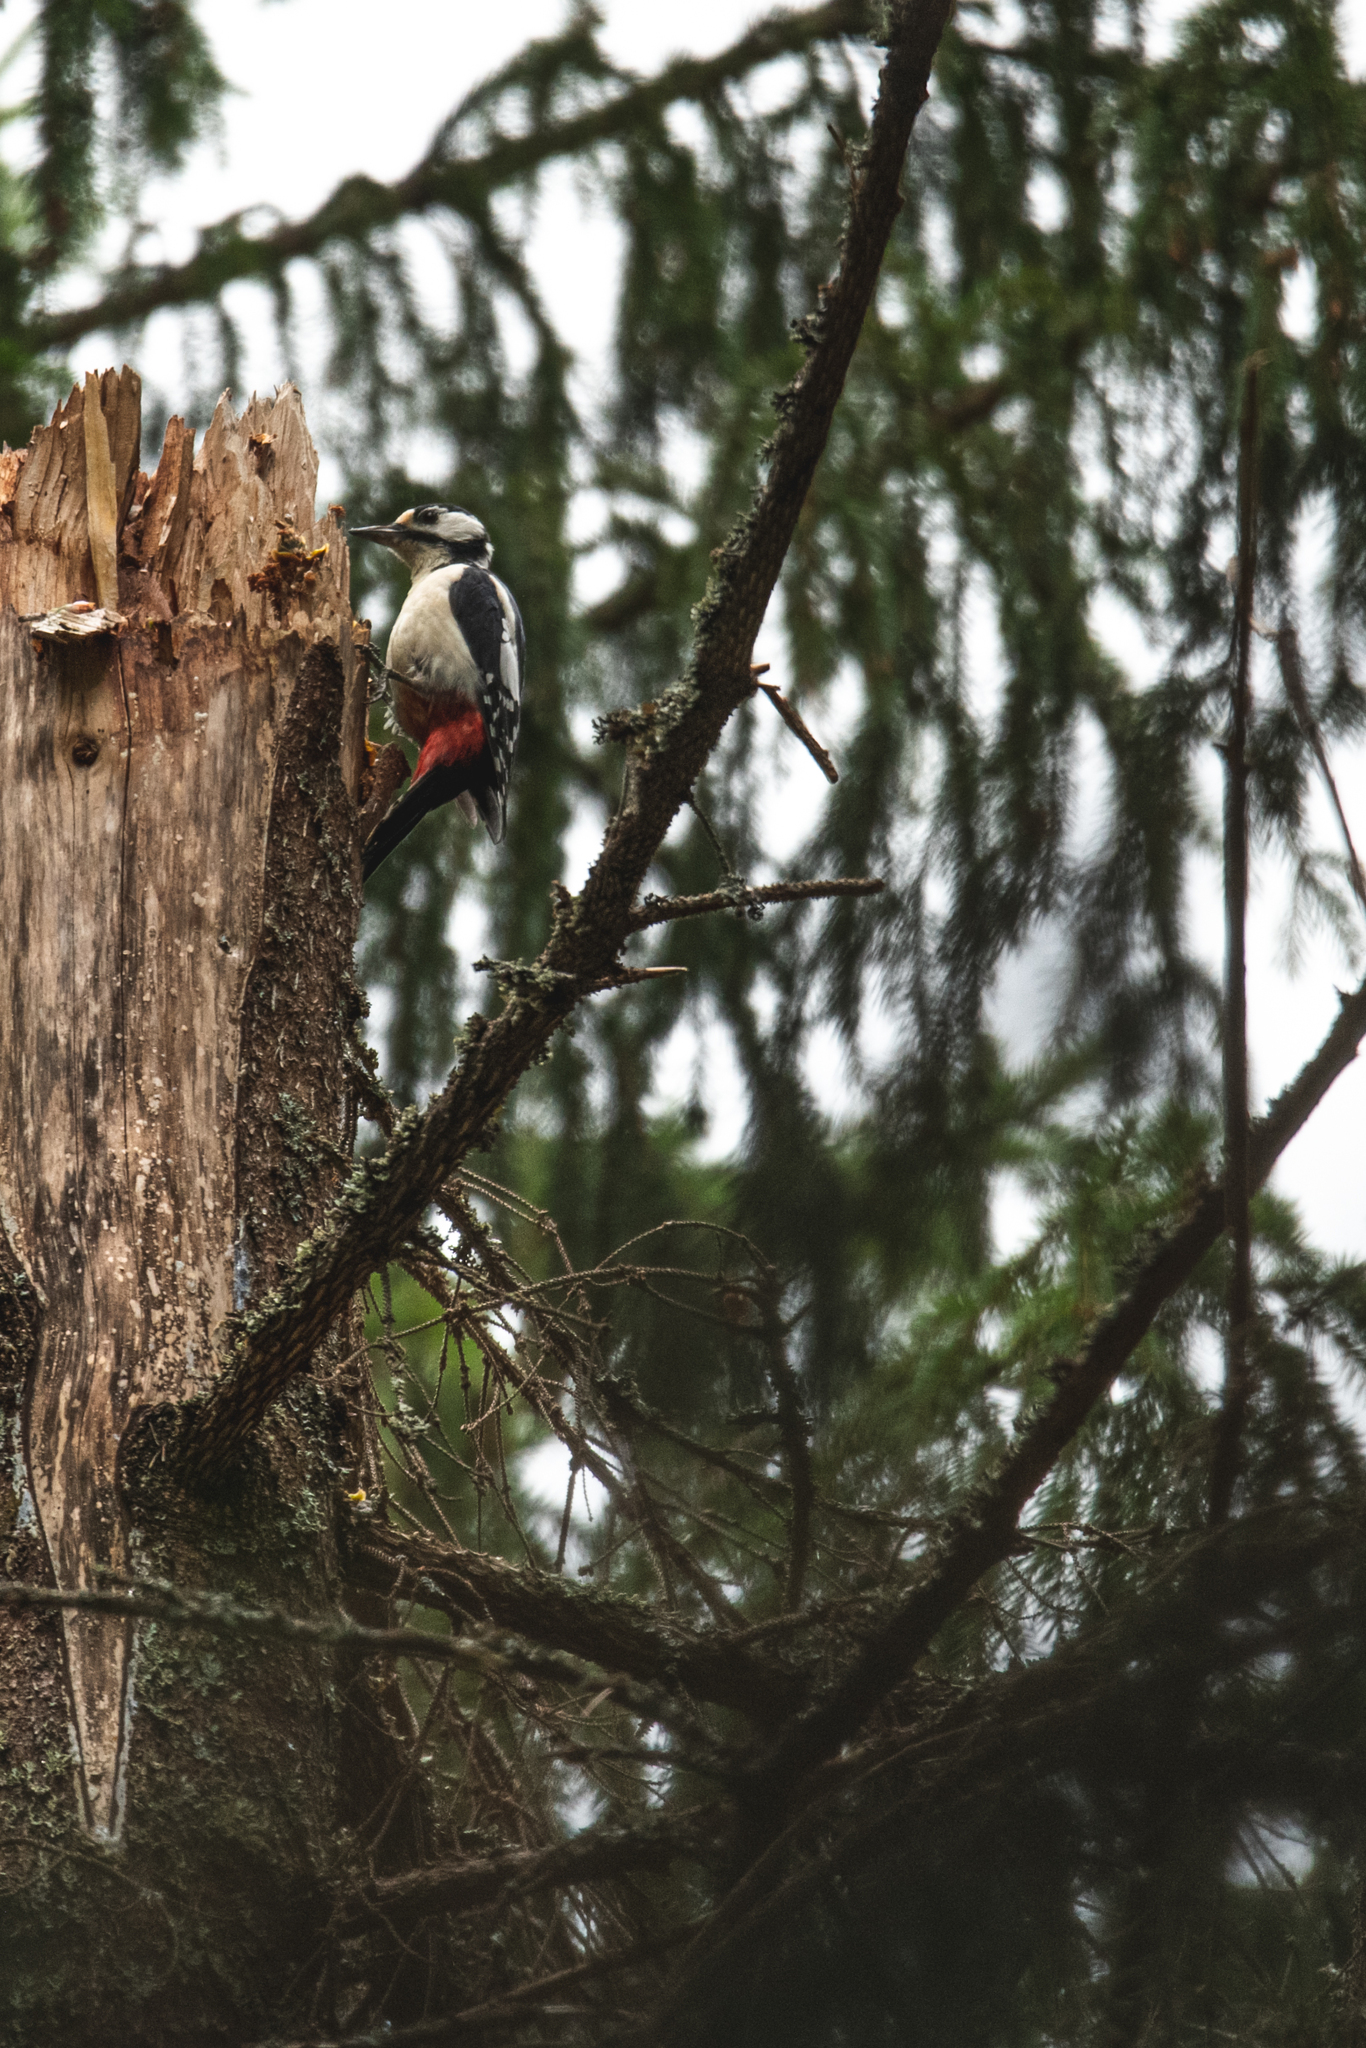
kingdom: Animalia
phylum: Chordata
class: Aves
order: Piciformes
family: Picidae
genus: Dendrocopos
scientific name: Dendrocopos major
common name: Great spotted woodpecker
